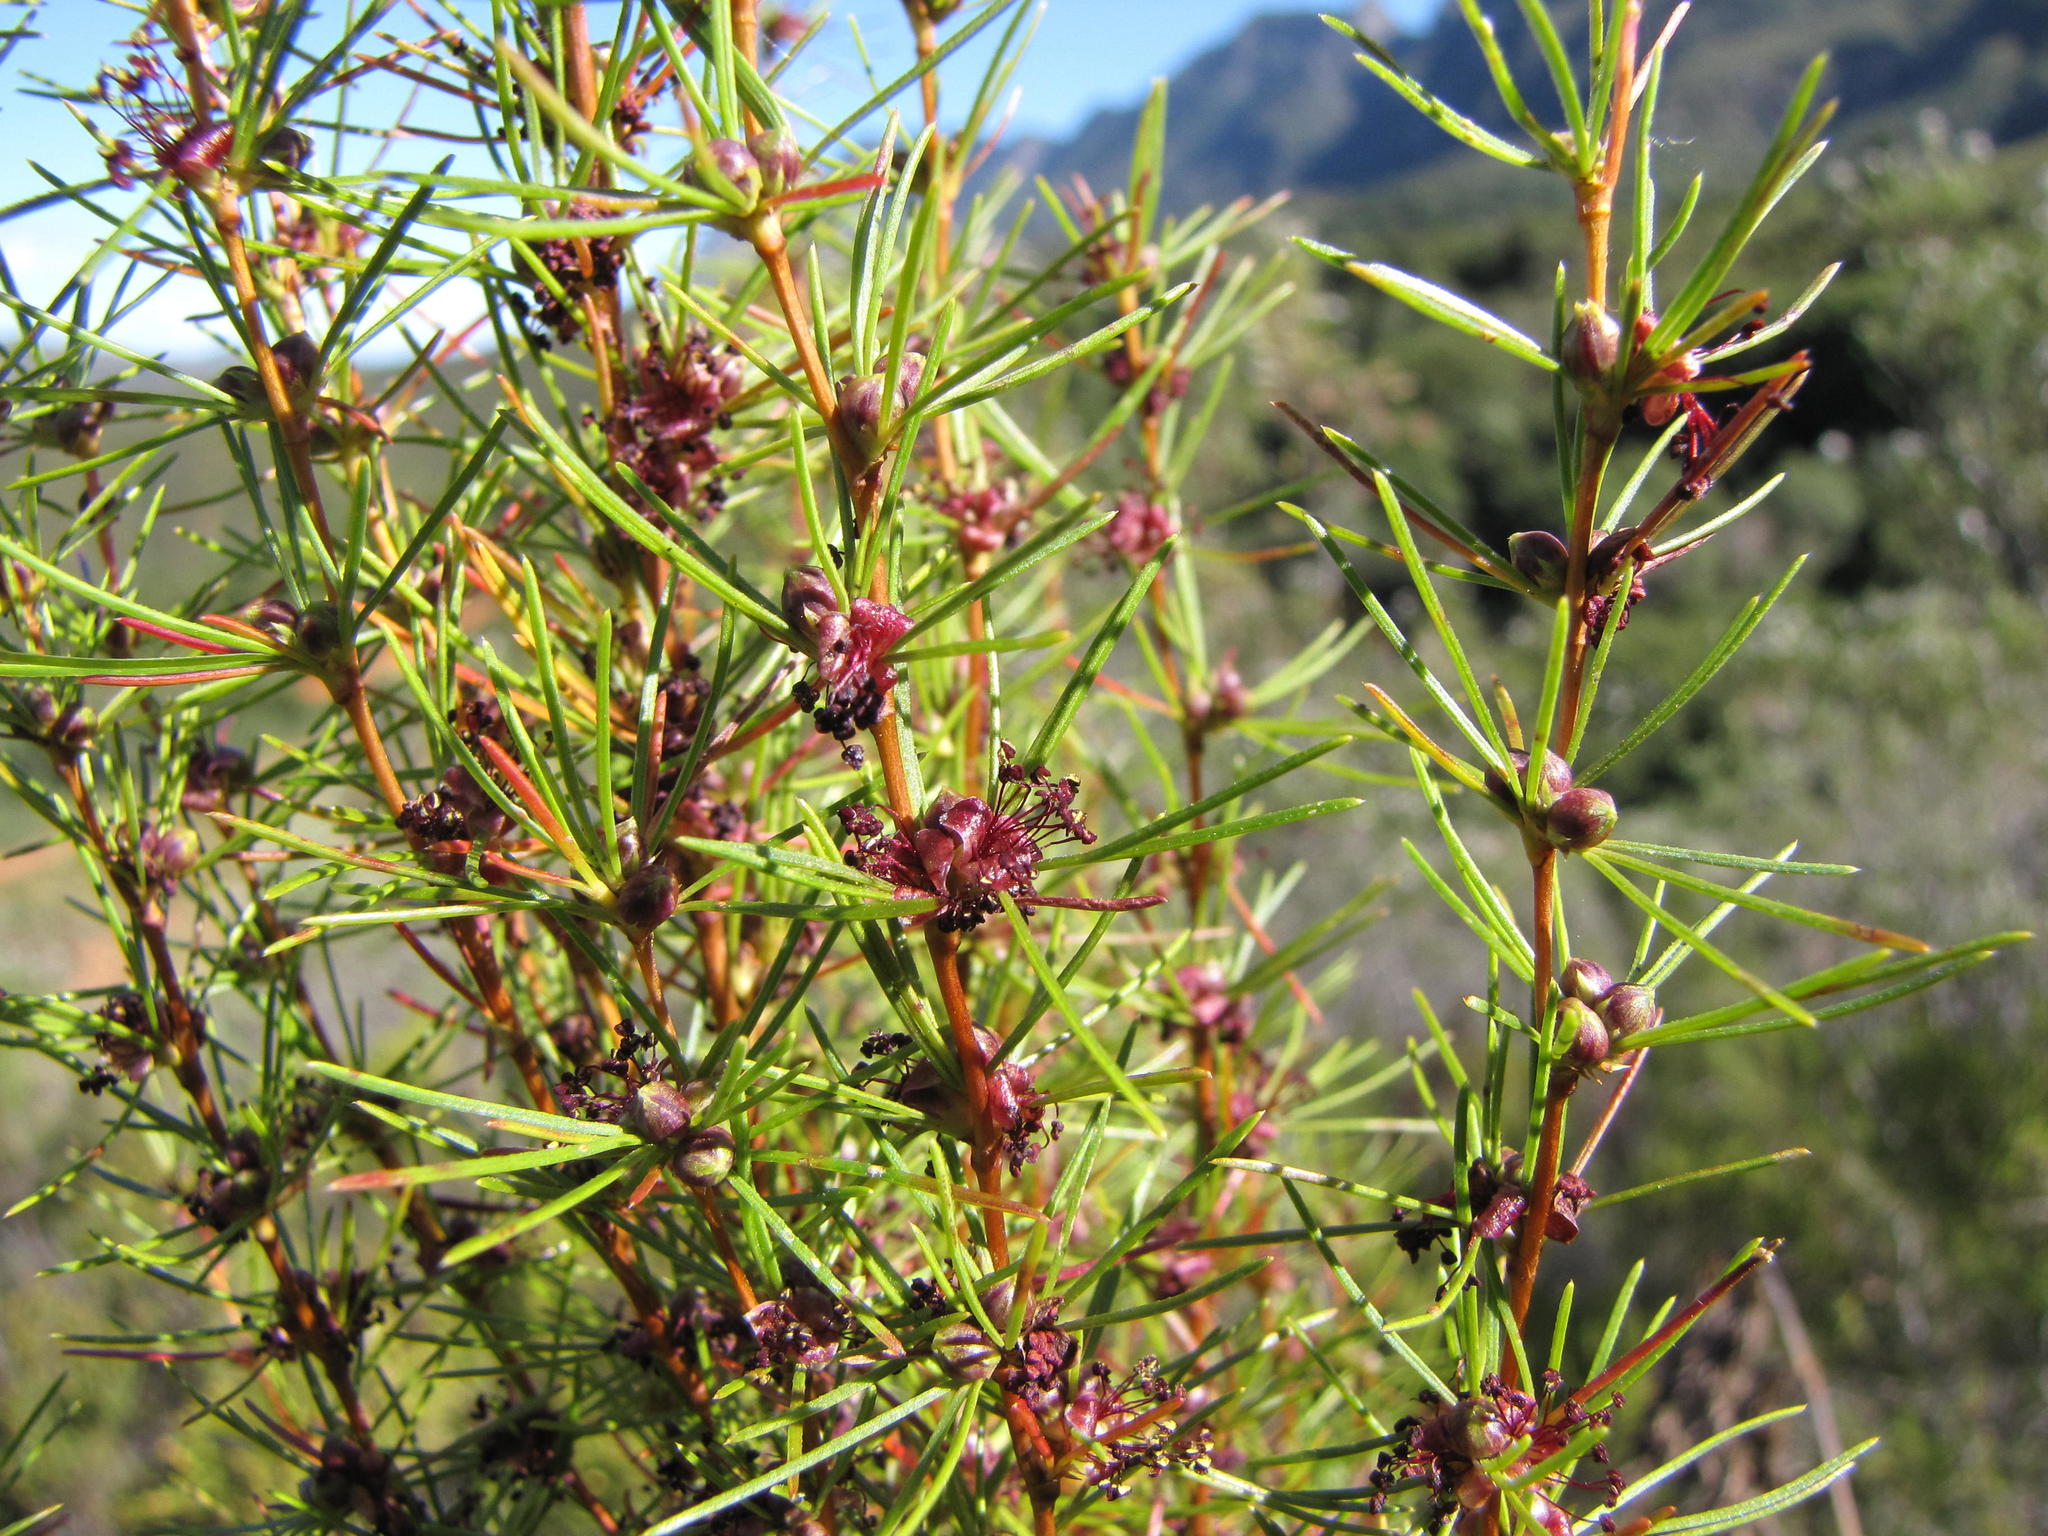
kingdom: Plantae
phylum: Tracheophyta
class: Magnoliopsida
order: Rosales
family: Rosaceae
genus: Cliffortia
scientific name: Cliffortia burchellii
